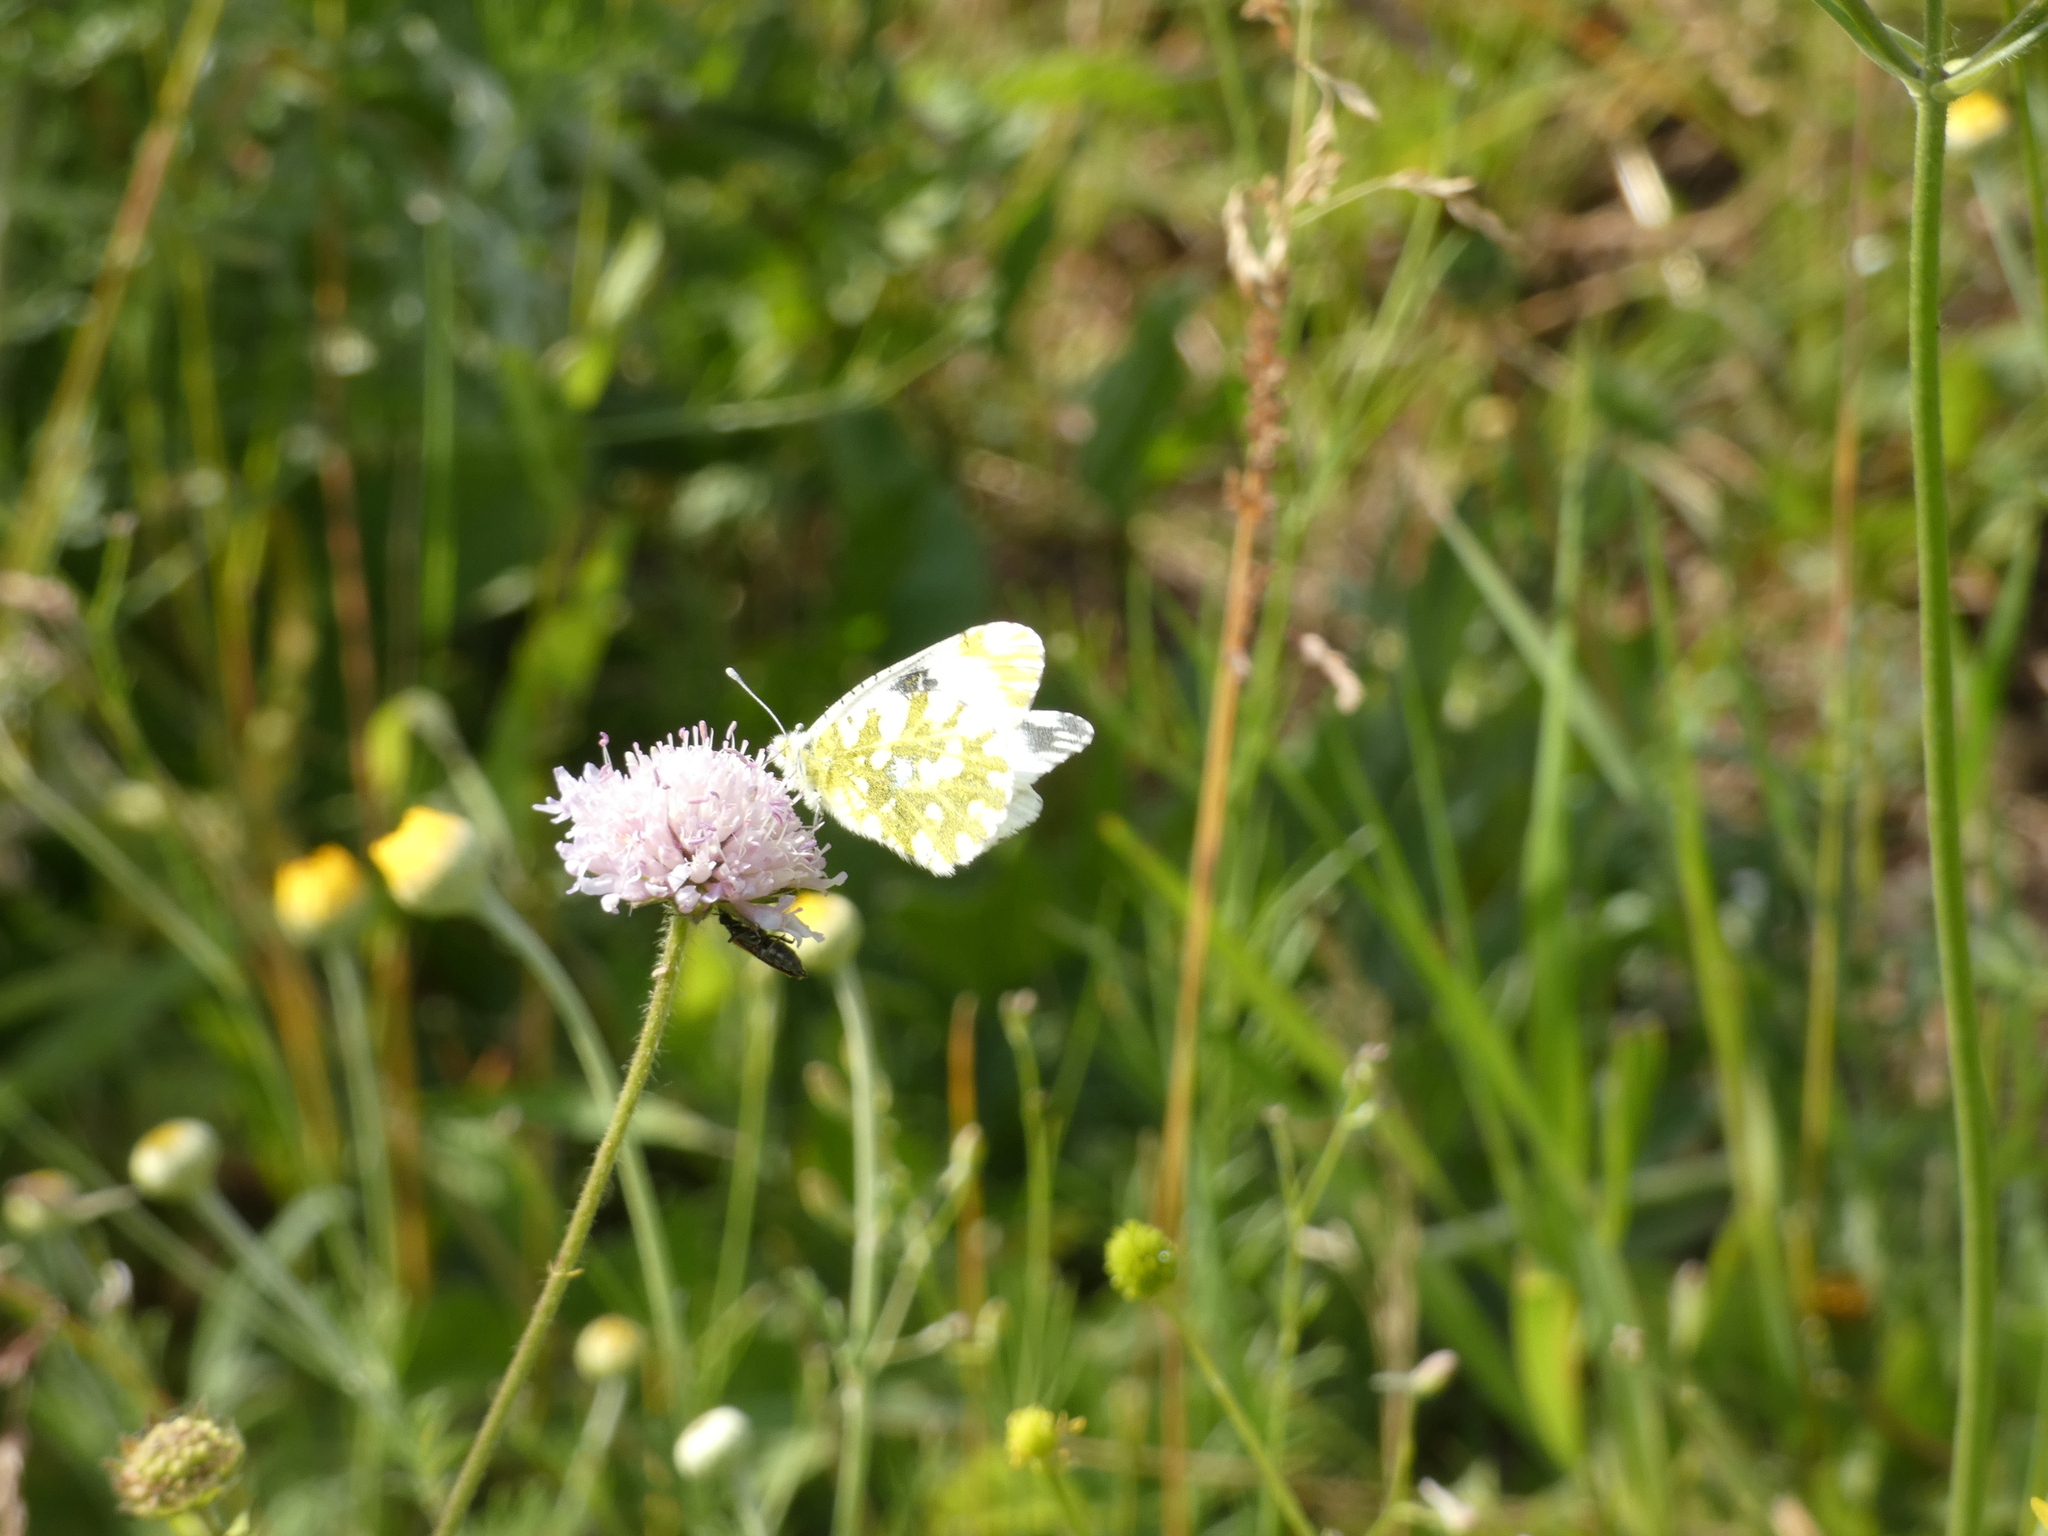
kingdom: Animalia
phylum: Arthropoda
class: Insecta
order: Lepidoptera
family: Pieridae
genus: Euchloe
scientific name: Euchloe ausonia
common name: Eastern dappled white
